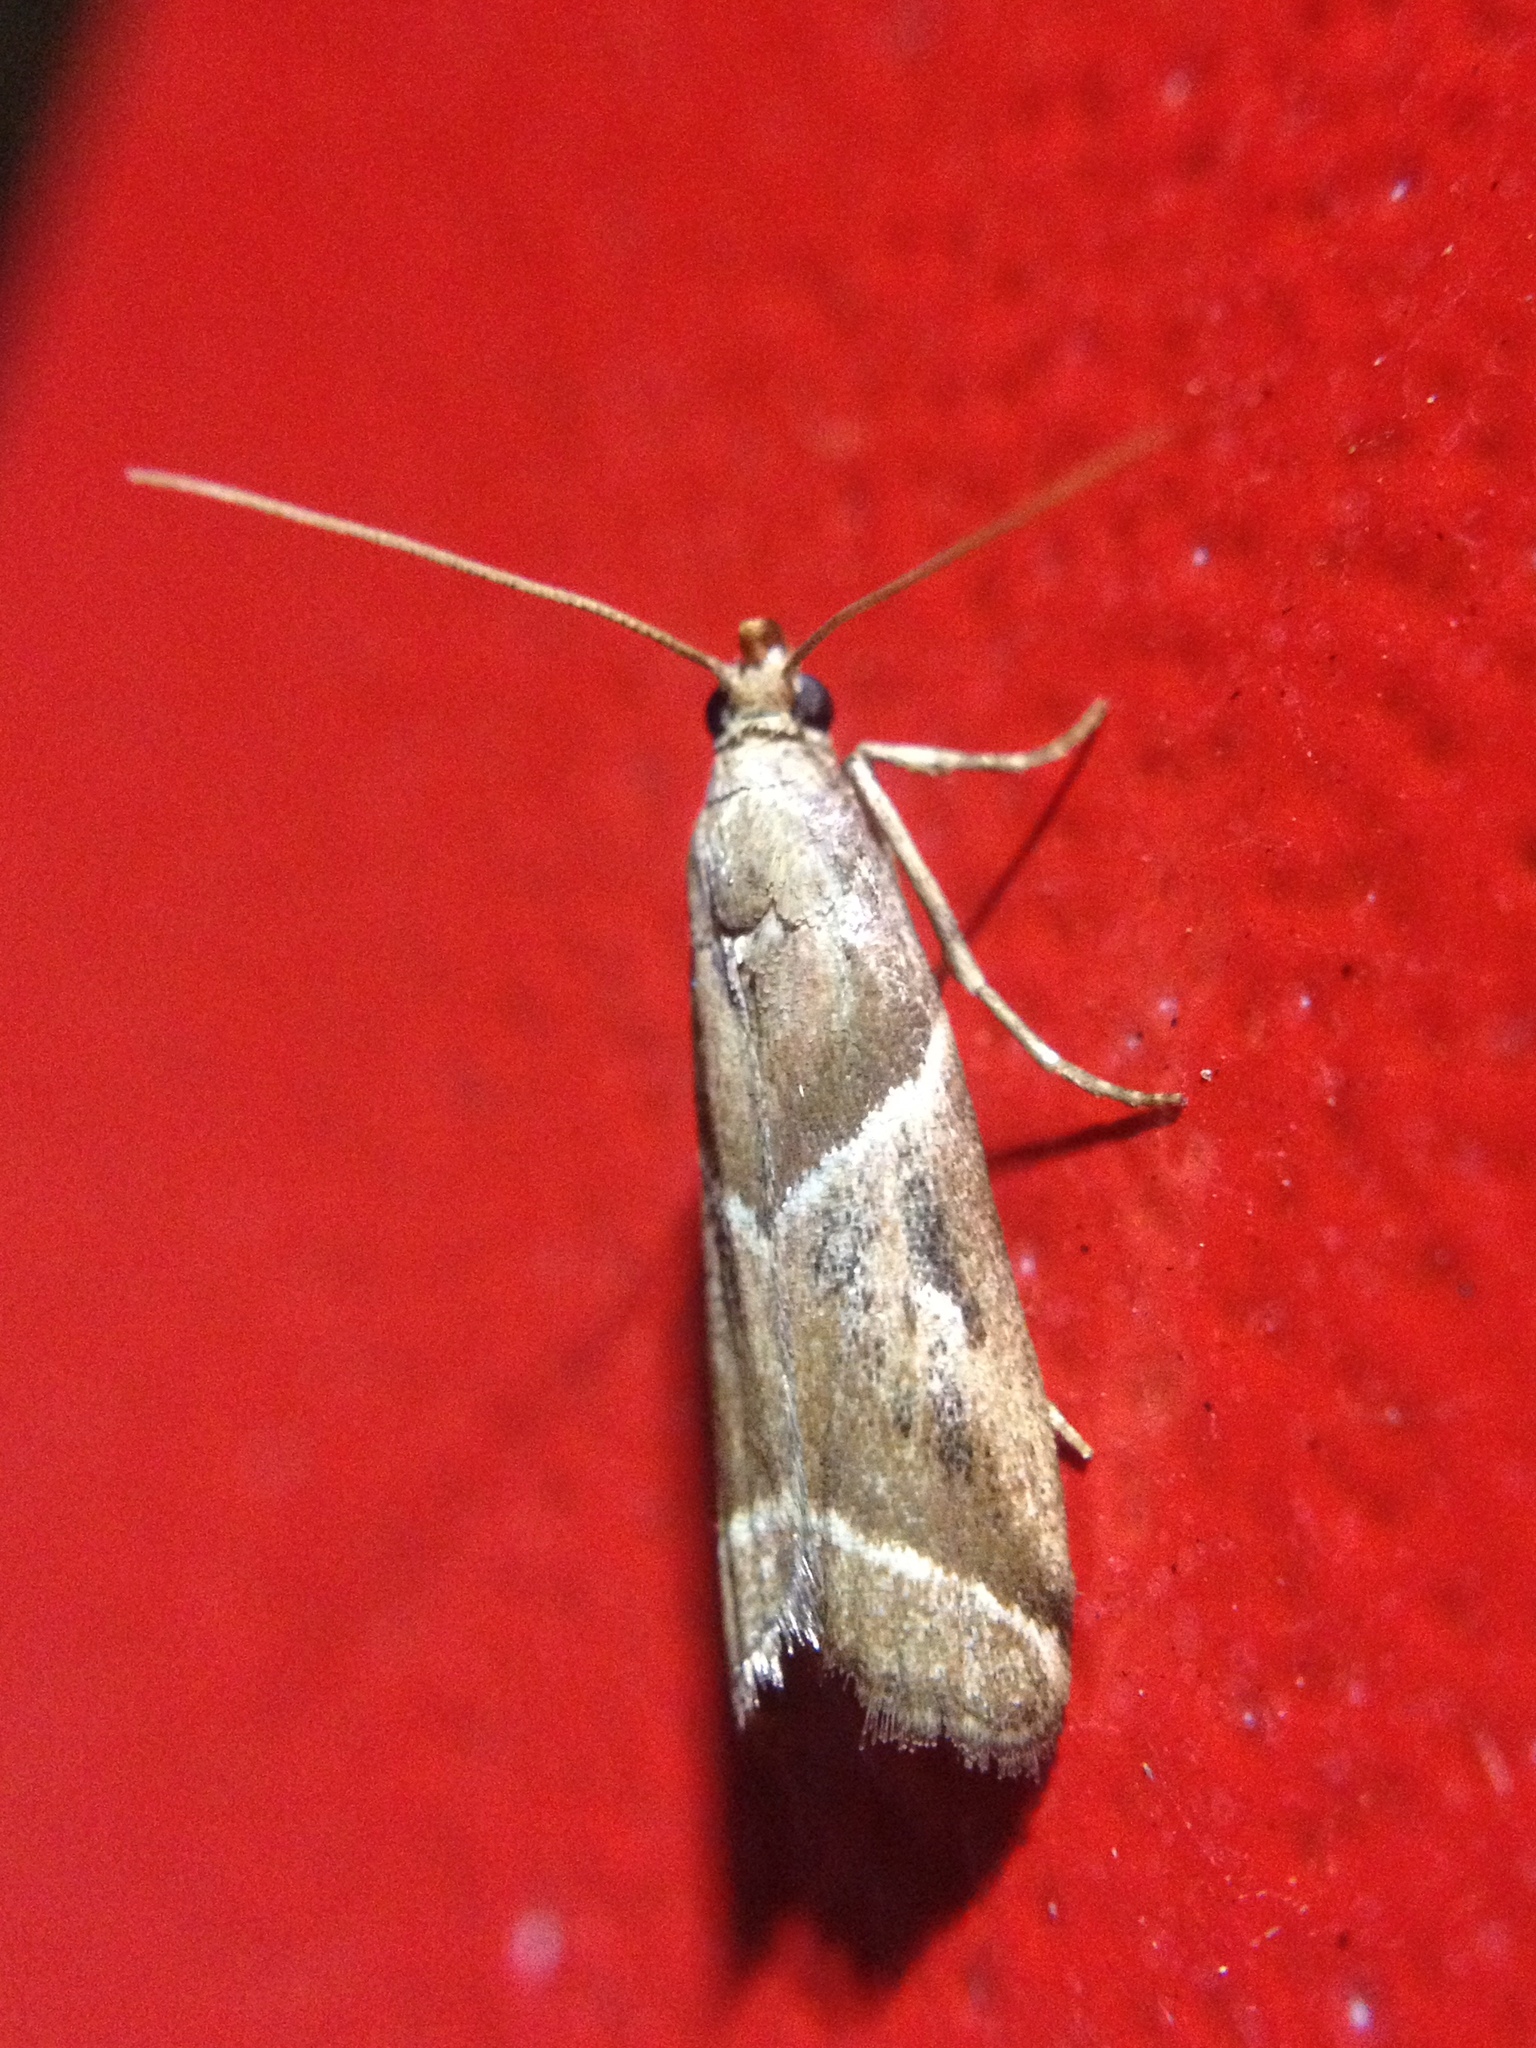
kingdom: Animalia
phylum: Arthropoda
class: Insecta
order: Lepidoptera
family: Pyralidae
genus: Nyctegretis
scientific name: Nyctegretis lineana
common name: Agate knot-horn
